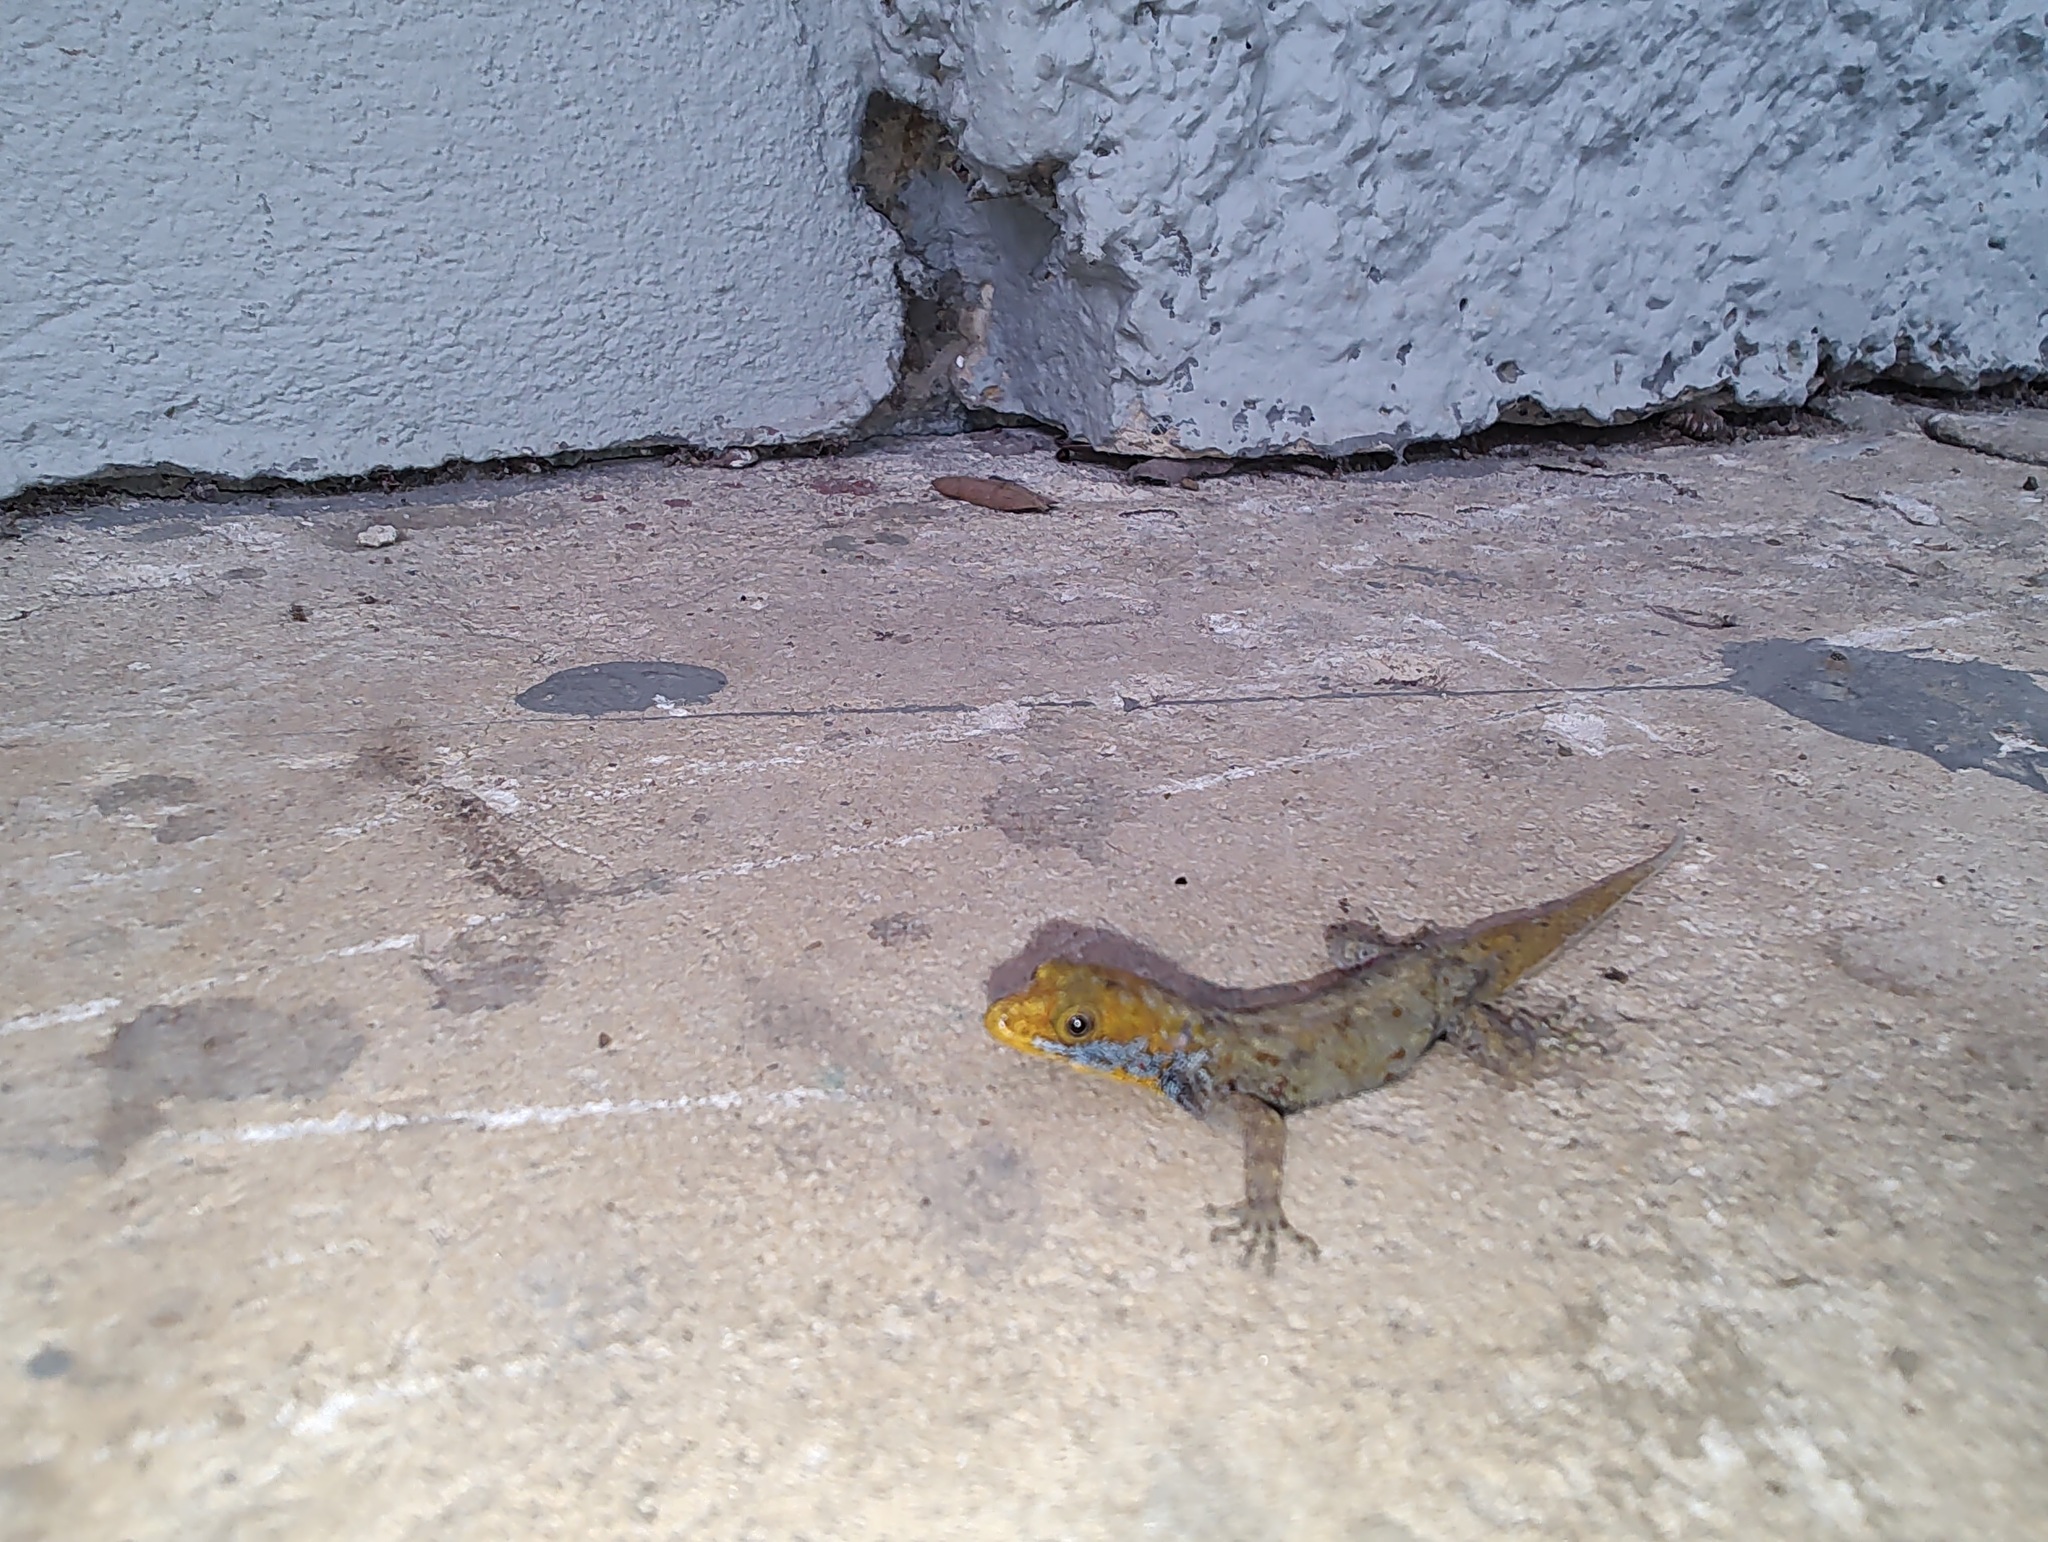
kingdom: Animalia
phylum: Chordata
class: Squamata
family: Sphaerodactylidae
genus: Gonatodes
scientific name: Gonatodes albogularis
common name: Yellow-headed gecko
